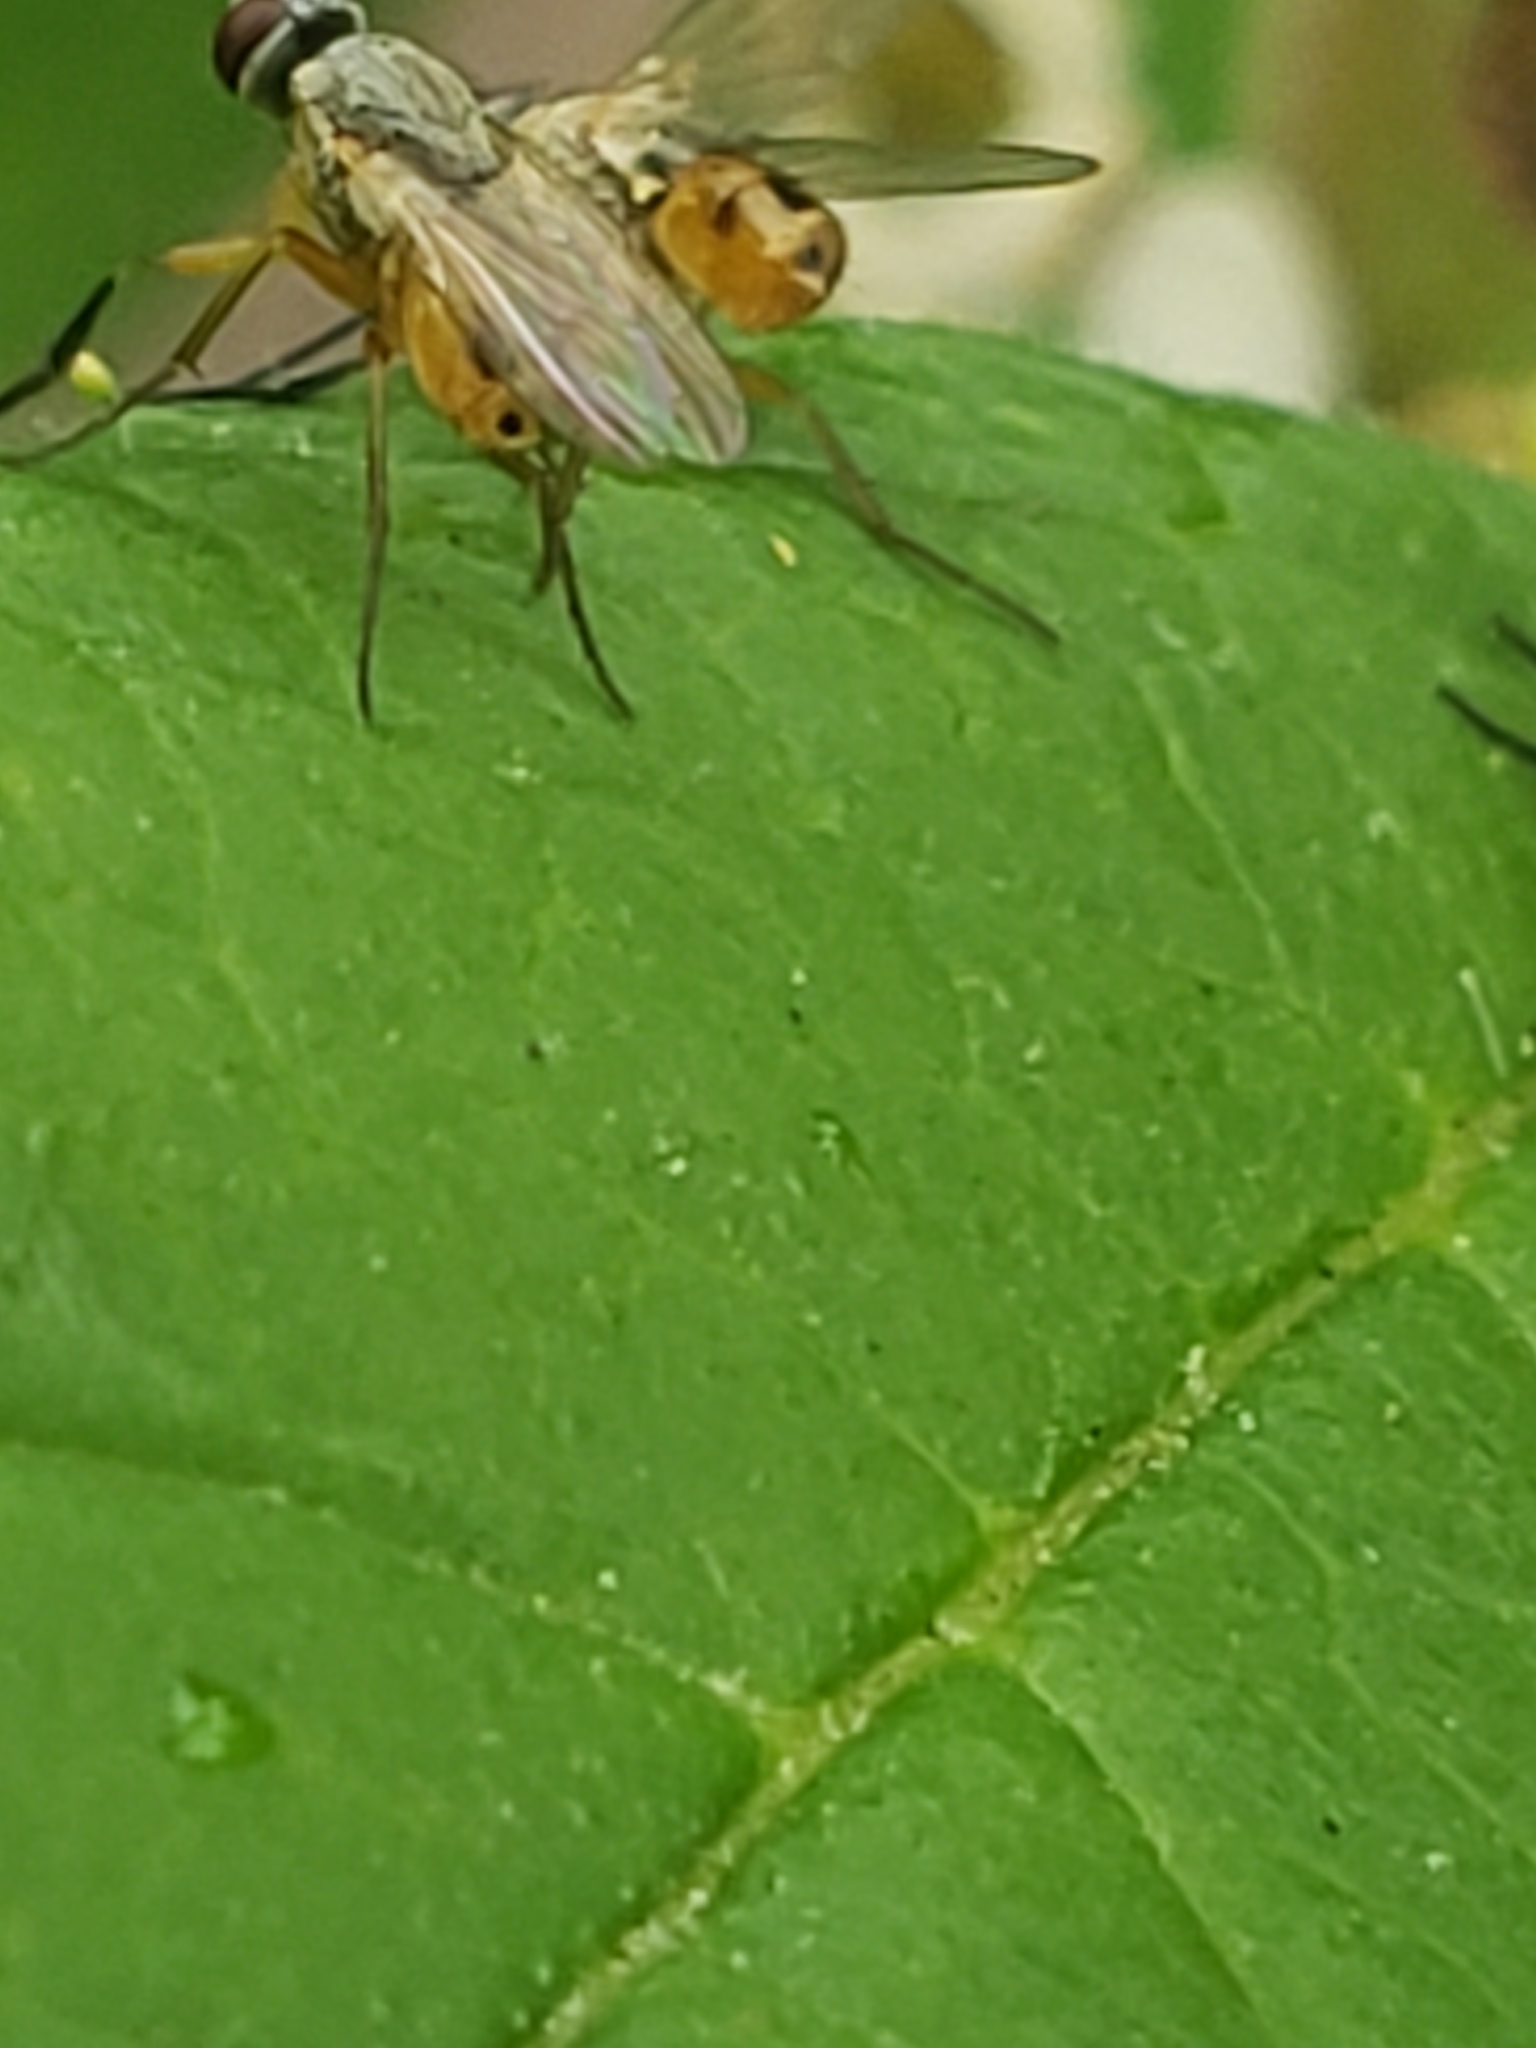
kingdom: Animalia
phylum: Arthropoda
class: Insecta
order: Diptera
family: Muscidae
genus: Atherigona
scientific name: Atherigona reversura
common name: Bermudagrass stem maggot
